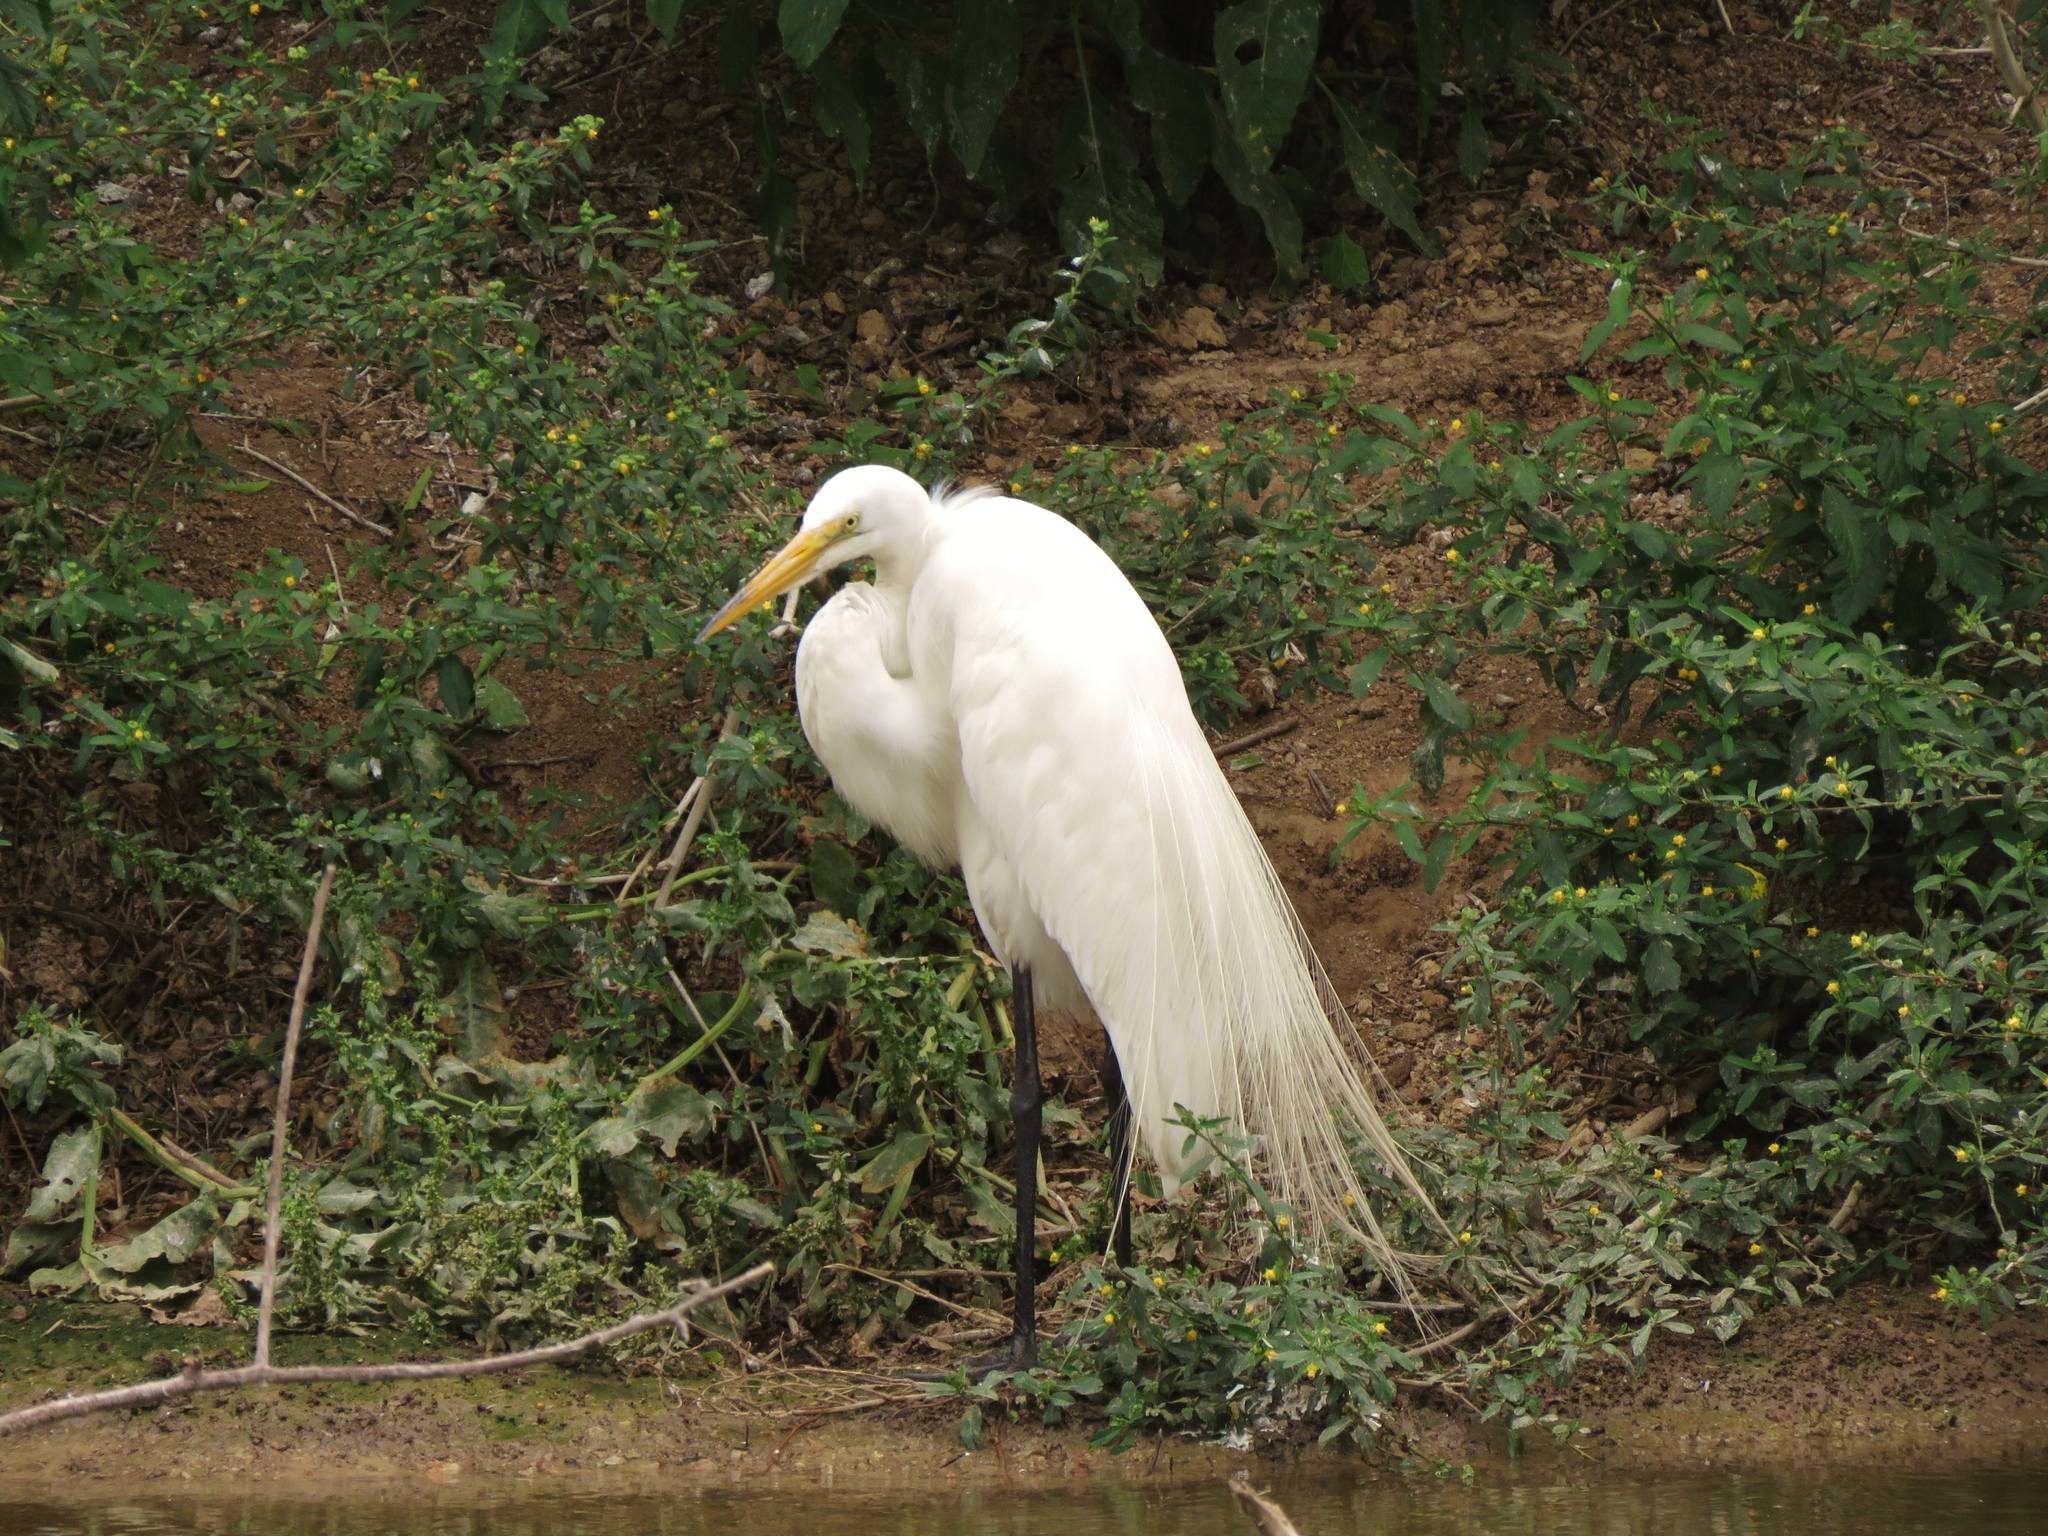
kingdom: Animalia
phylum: Chordata
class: Aves
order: Pelecaniformes
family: Ardeidae
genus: Ardea
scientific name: Ardea alba
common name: Great egret
